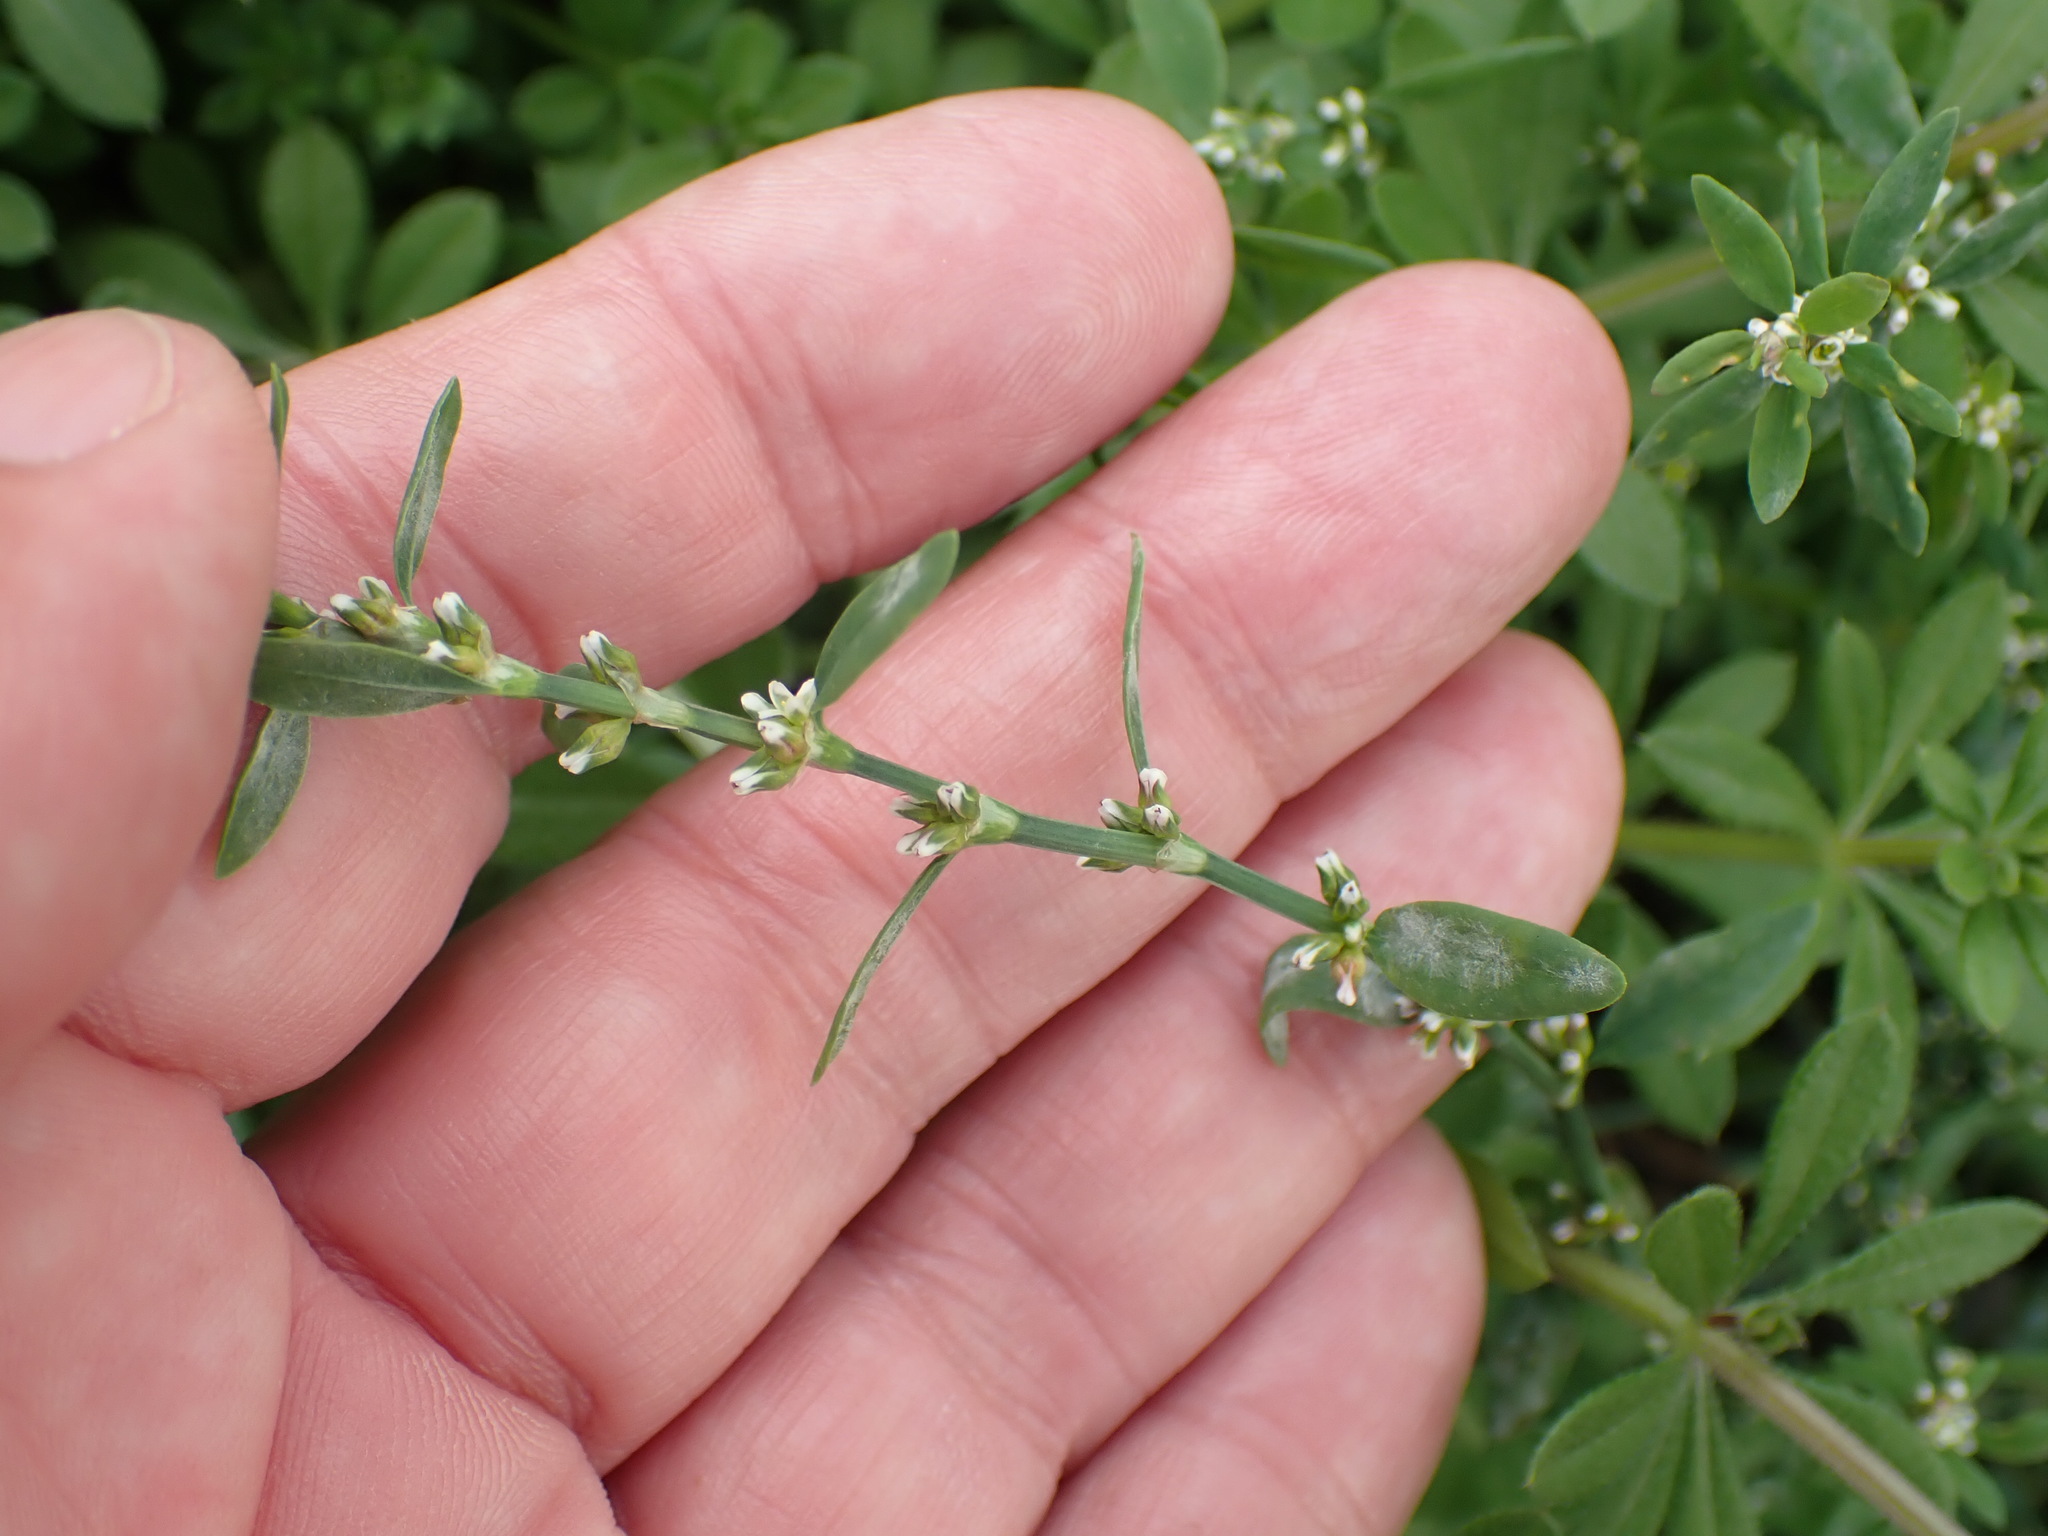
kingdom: Plantae
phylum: Tracheophyta
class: Magnoliopsida
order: Caryophyllales
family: Polygonaceae
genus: Polygonum
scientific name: Polygonum aviculare
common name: Prostrate knotweed
